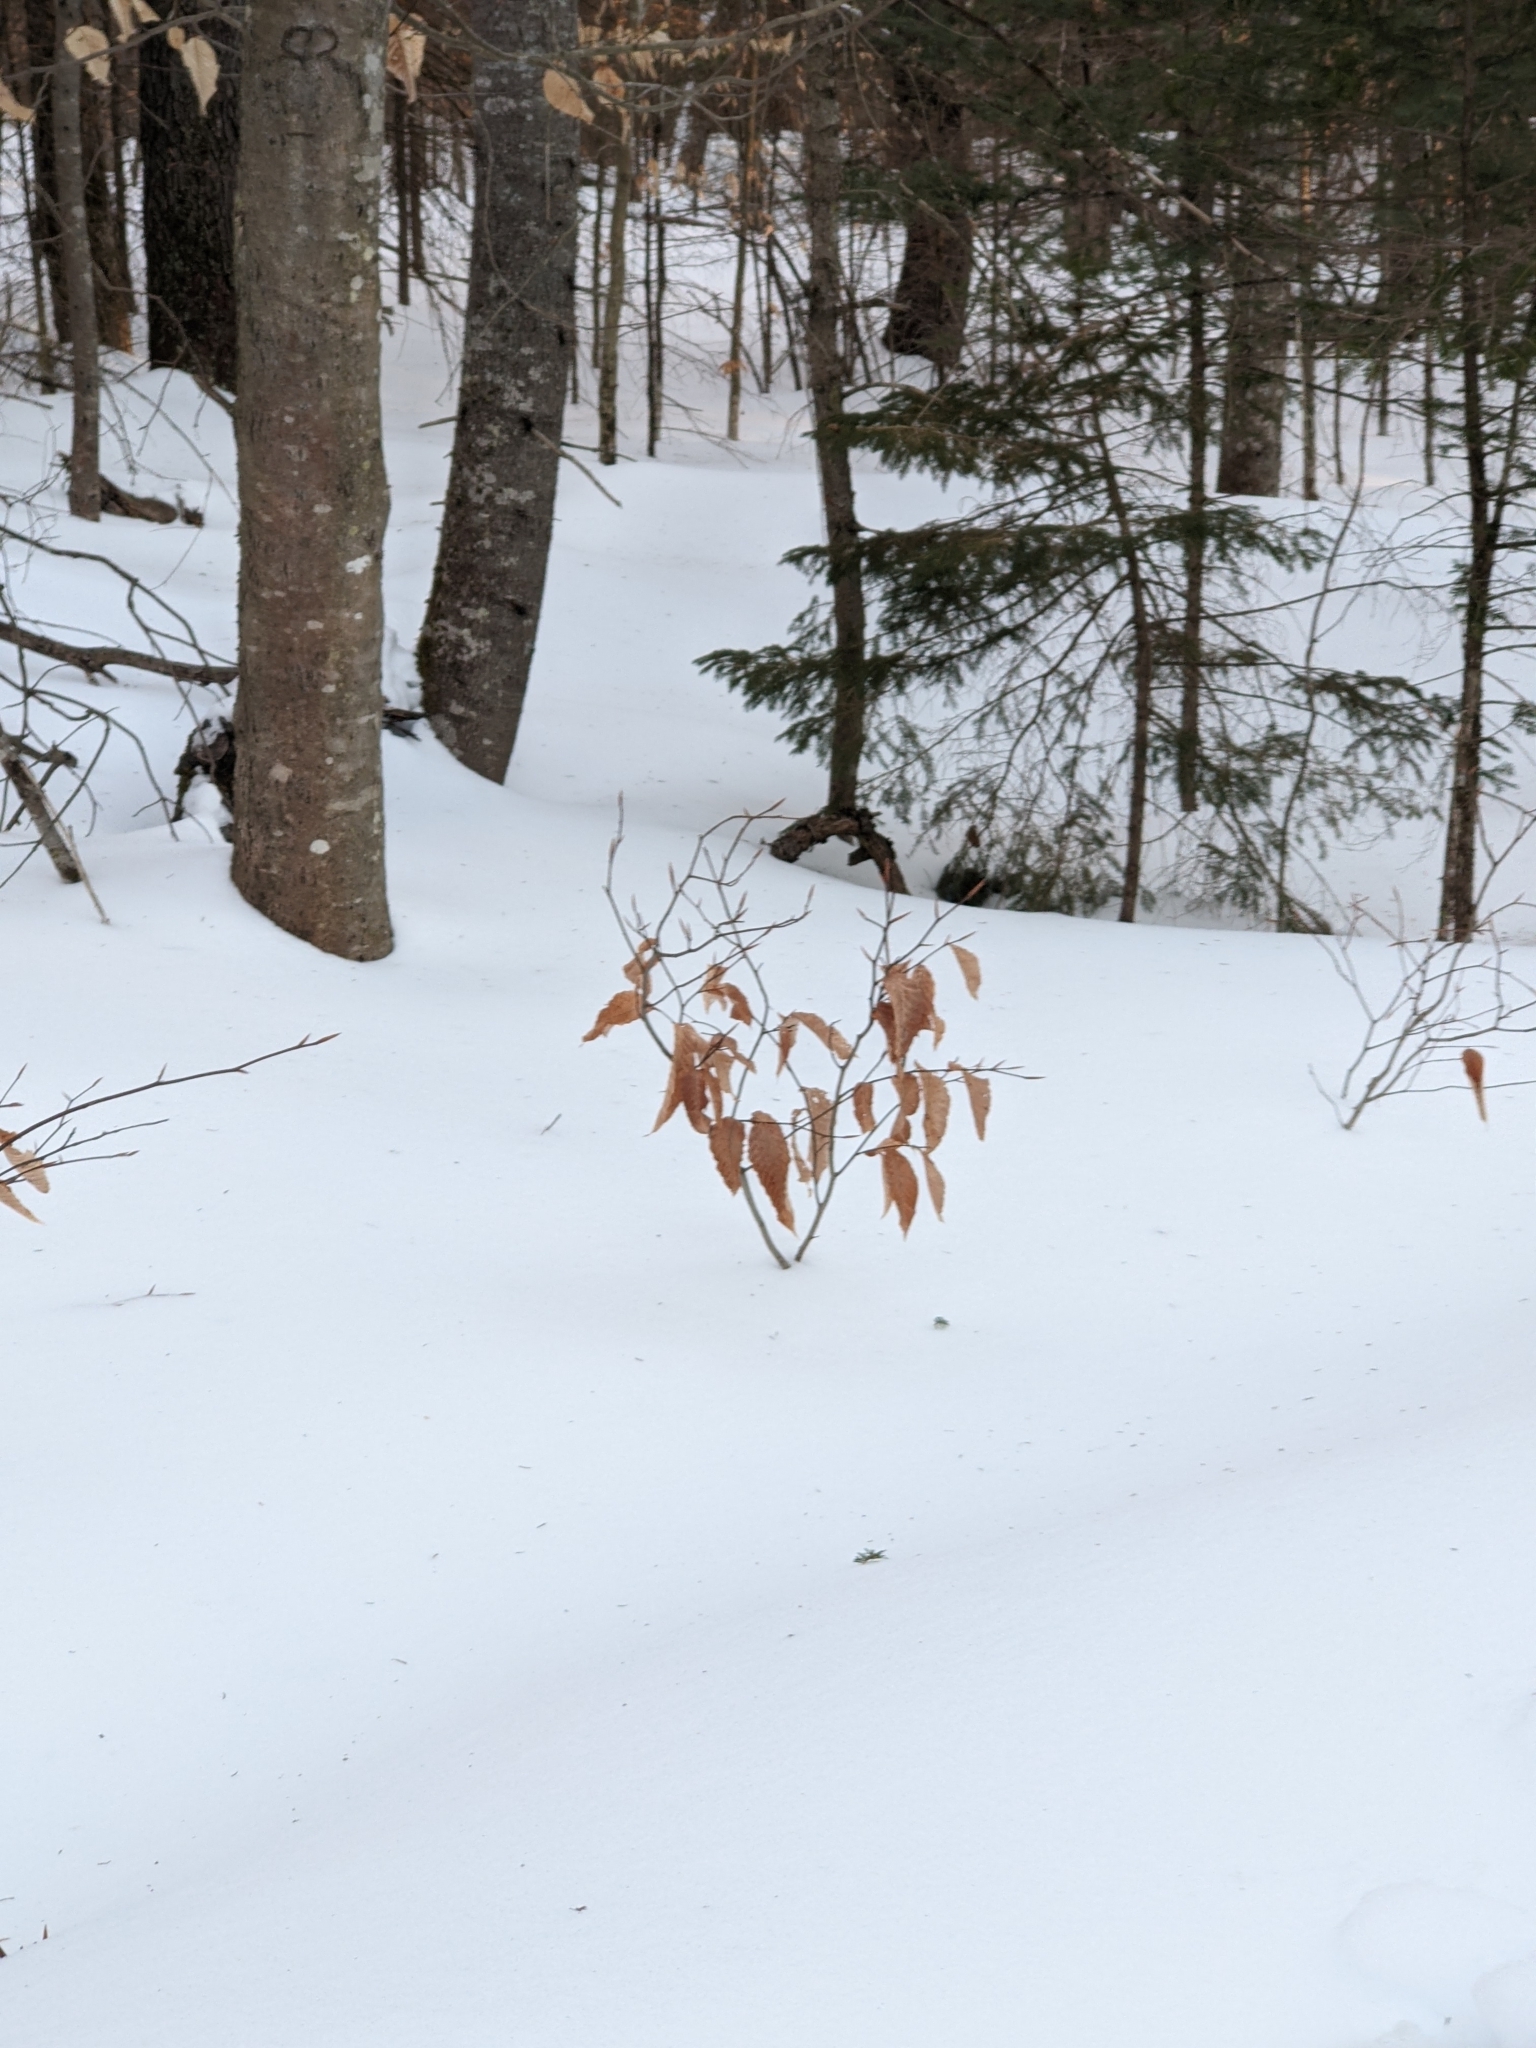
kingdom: Plantae
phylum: Tracheophyta
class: Magnoliopsida
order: Fagales
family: Fagaceae
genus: Fagus
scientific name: Fagus grandifolia
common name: American beech
